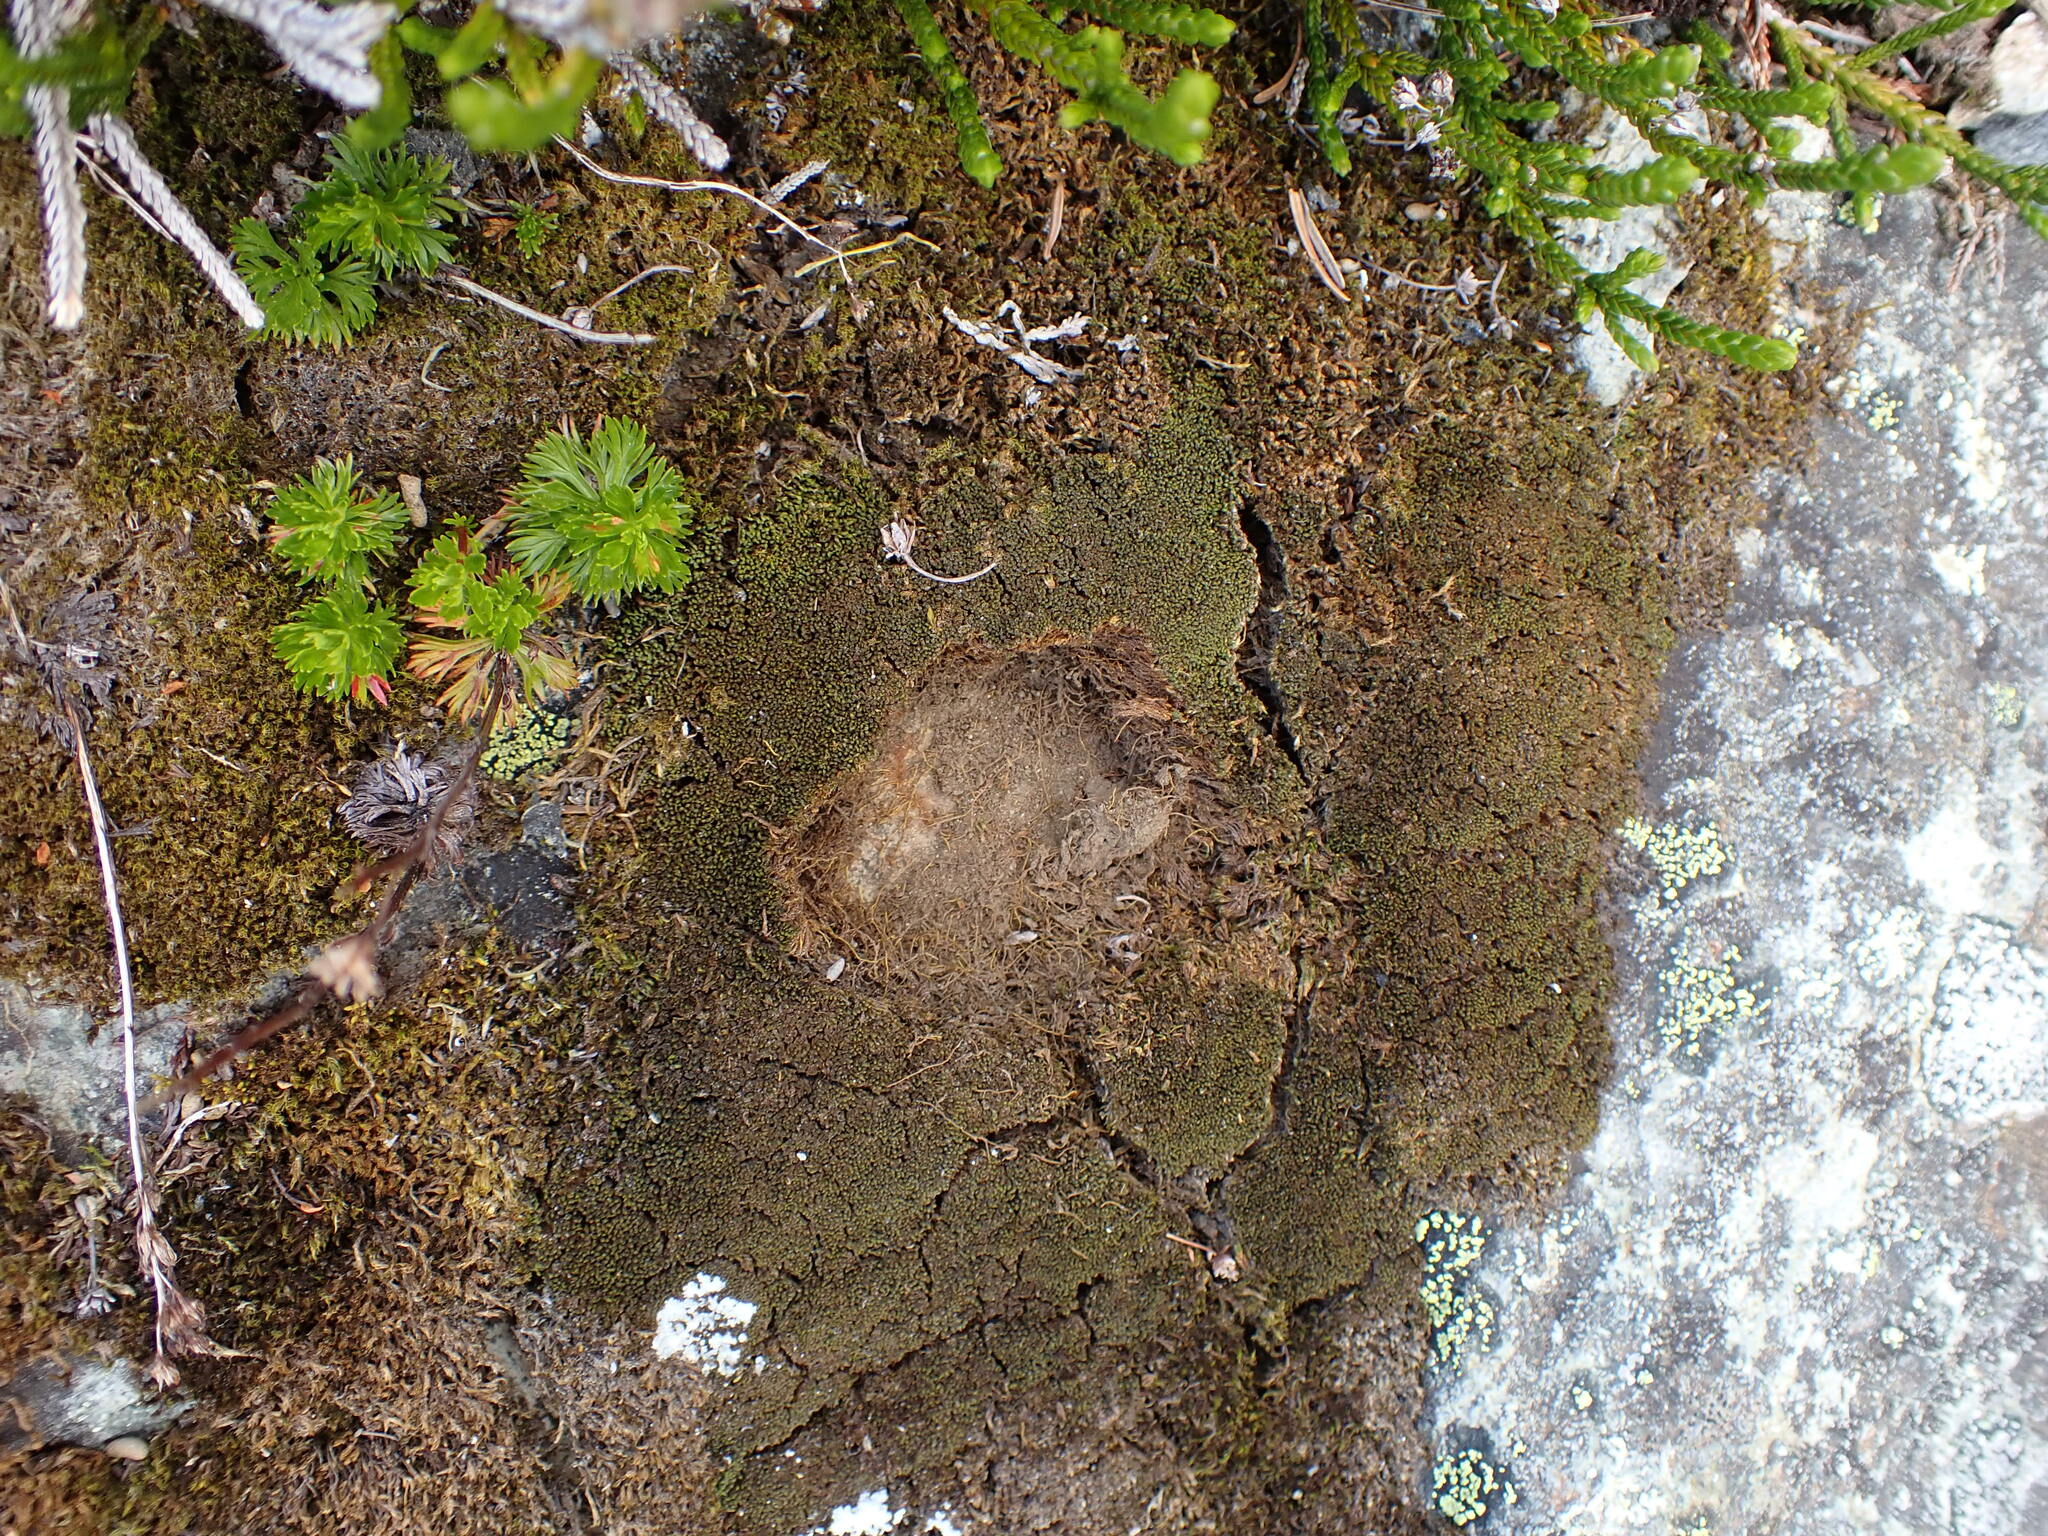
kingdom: Plantae
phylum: Bryophyta
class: Bryopsida
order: Pottiales
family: Pottiaceae
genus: Didymodon
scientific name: Didymodon rigidulus
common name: Rigid beard-moss
